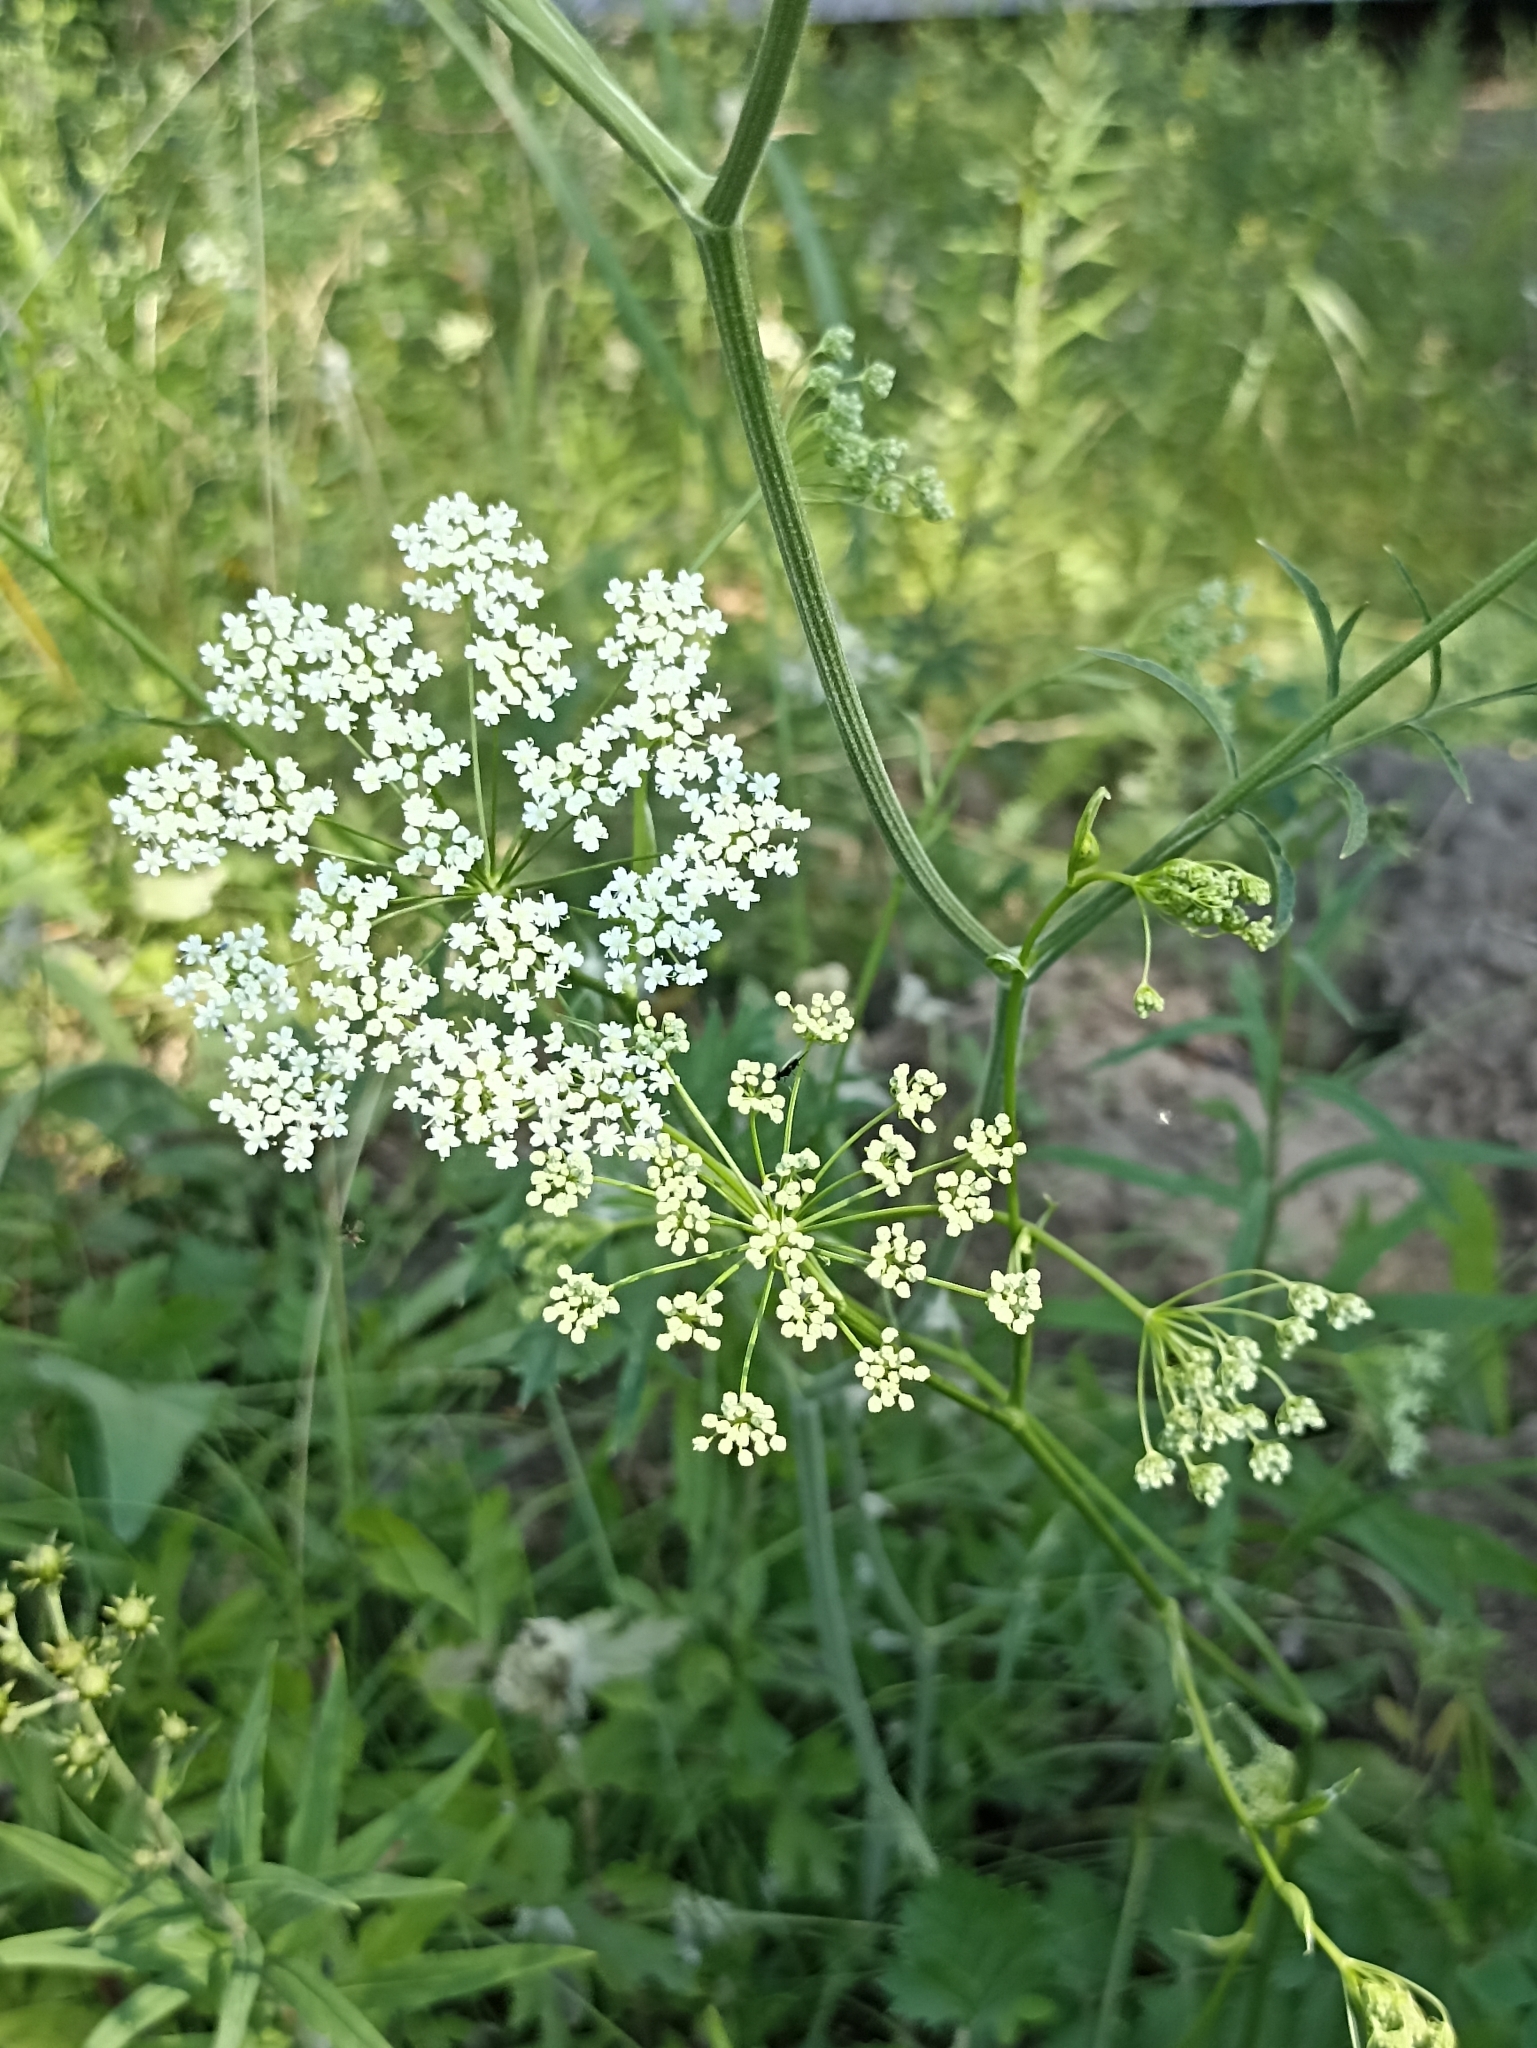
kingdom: Plantae
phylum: Tracheophyta
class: Magnoliopsida
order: Apiales
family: Apiaceae
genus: Pimpinella
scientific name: Pimpinella saxifraga
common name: Burnet-saxifrage
